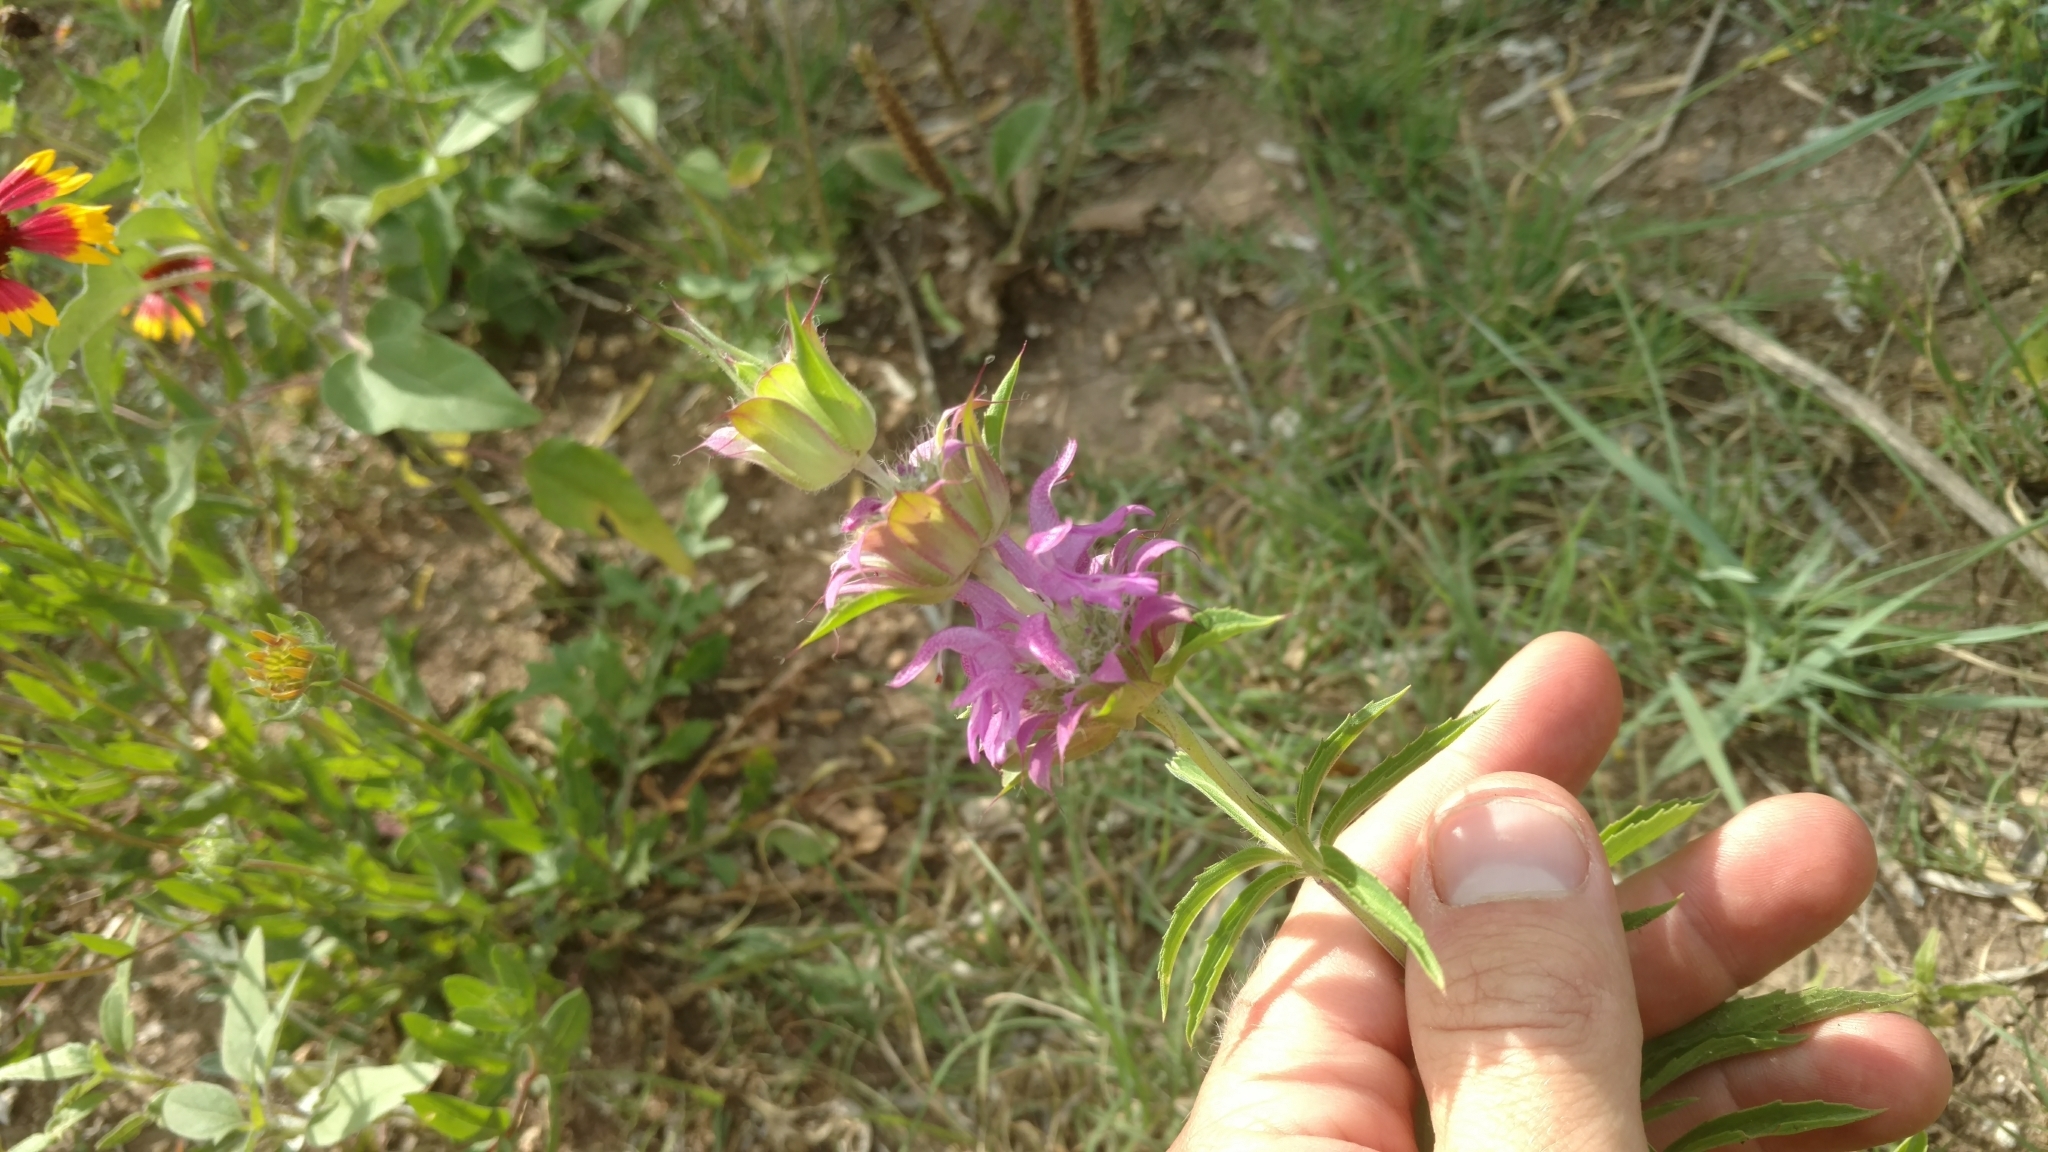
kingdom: Plantae
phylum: Tracheophyta
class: Magnoliopsida
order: Lamiales
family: Lamiaceae
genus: Monarda
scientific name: Monarda citriodora
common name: Lemon beebalm
